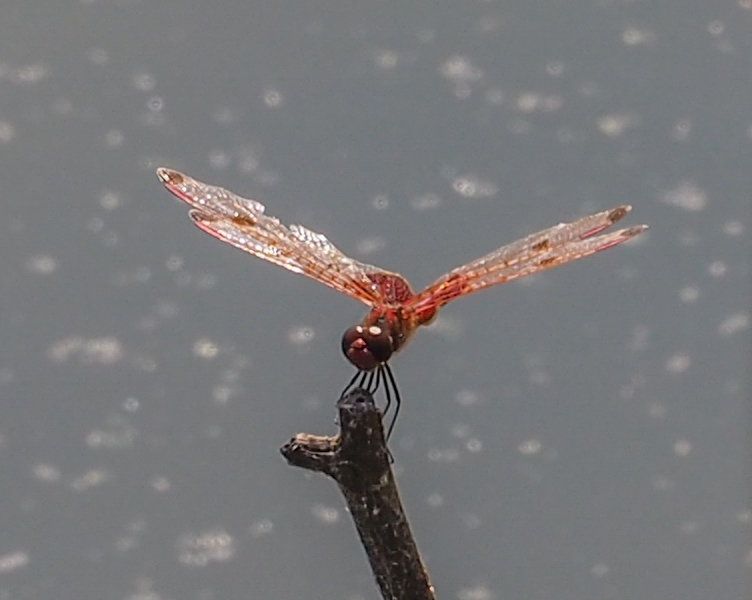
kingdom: Animalia
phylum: Arthropoda
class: Insecta
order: Odonata
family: Libellulidae
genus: Celithemis
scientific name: Celithemis elisa
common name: Calico pennant
